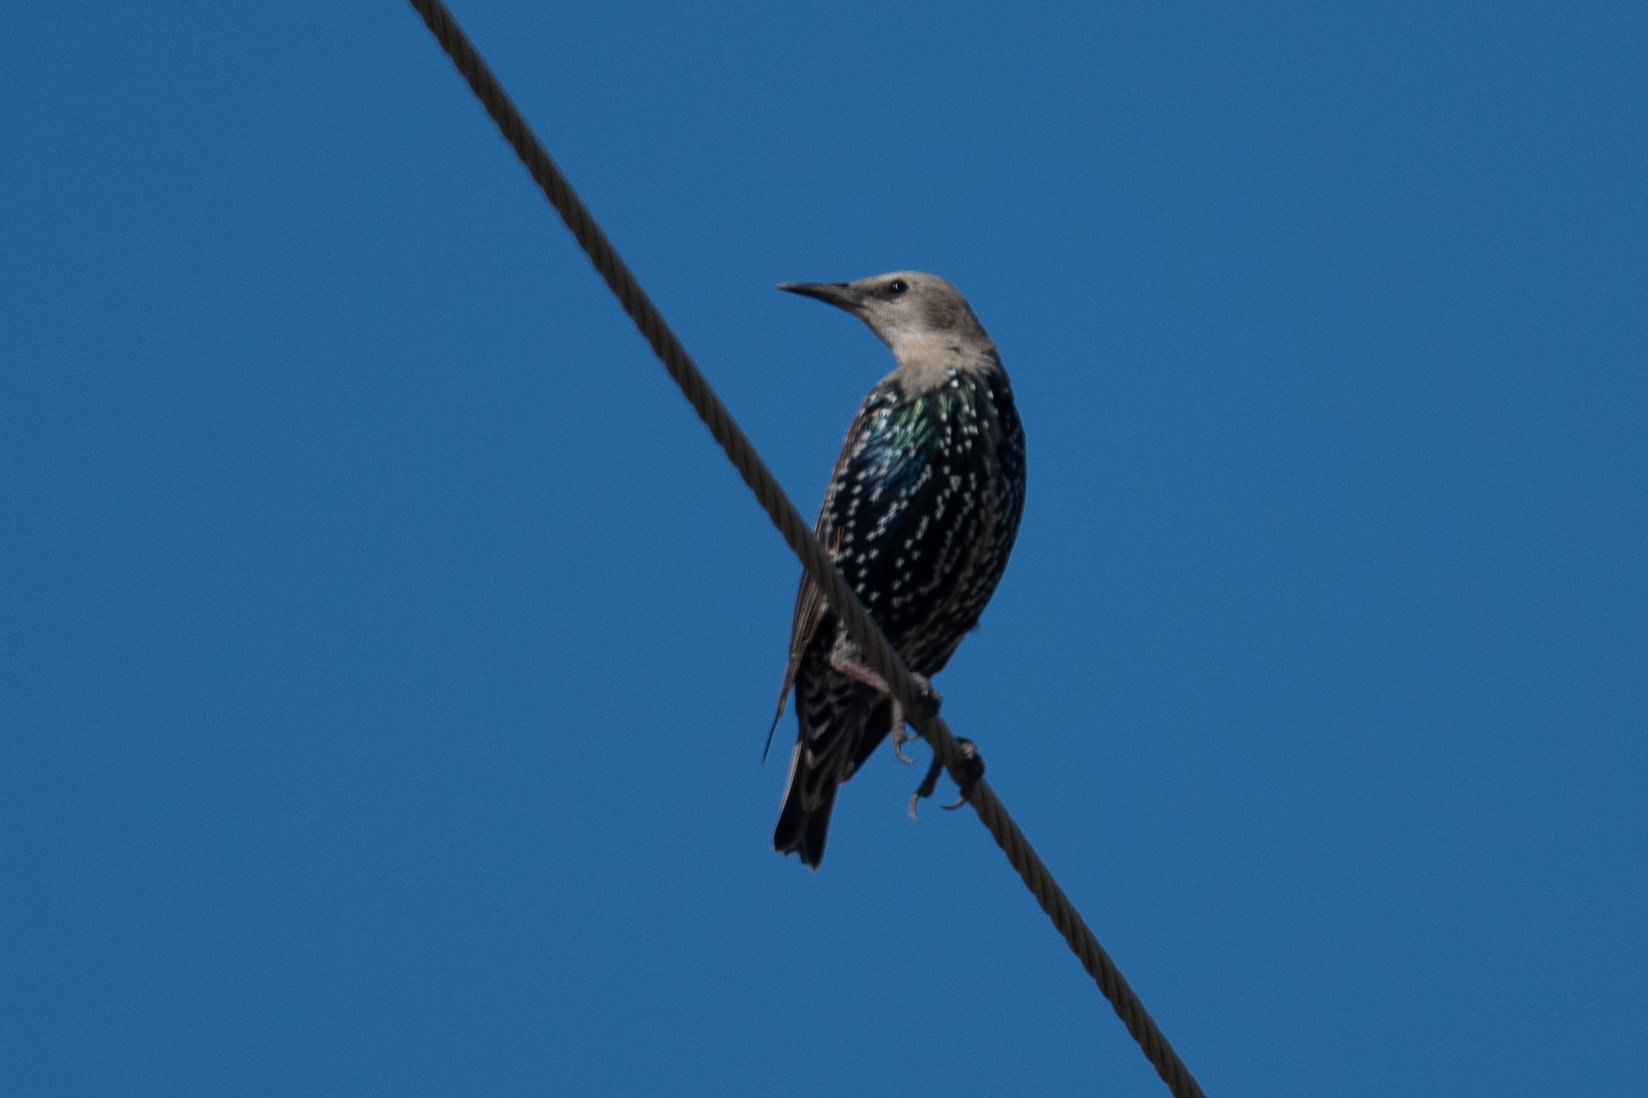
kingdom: Animalia
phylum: Chordata
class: Aves
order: Passeriformes
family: Sturnidae
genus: Sturnus
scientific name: Sturnus vulgaris
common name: Common starling
